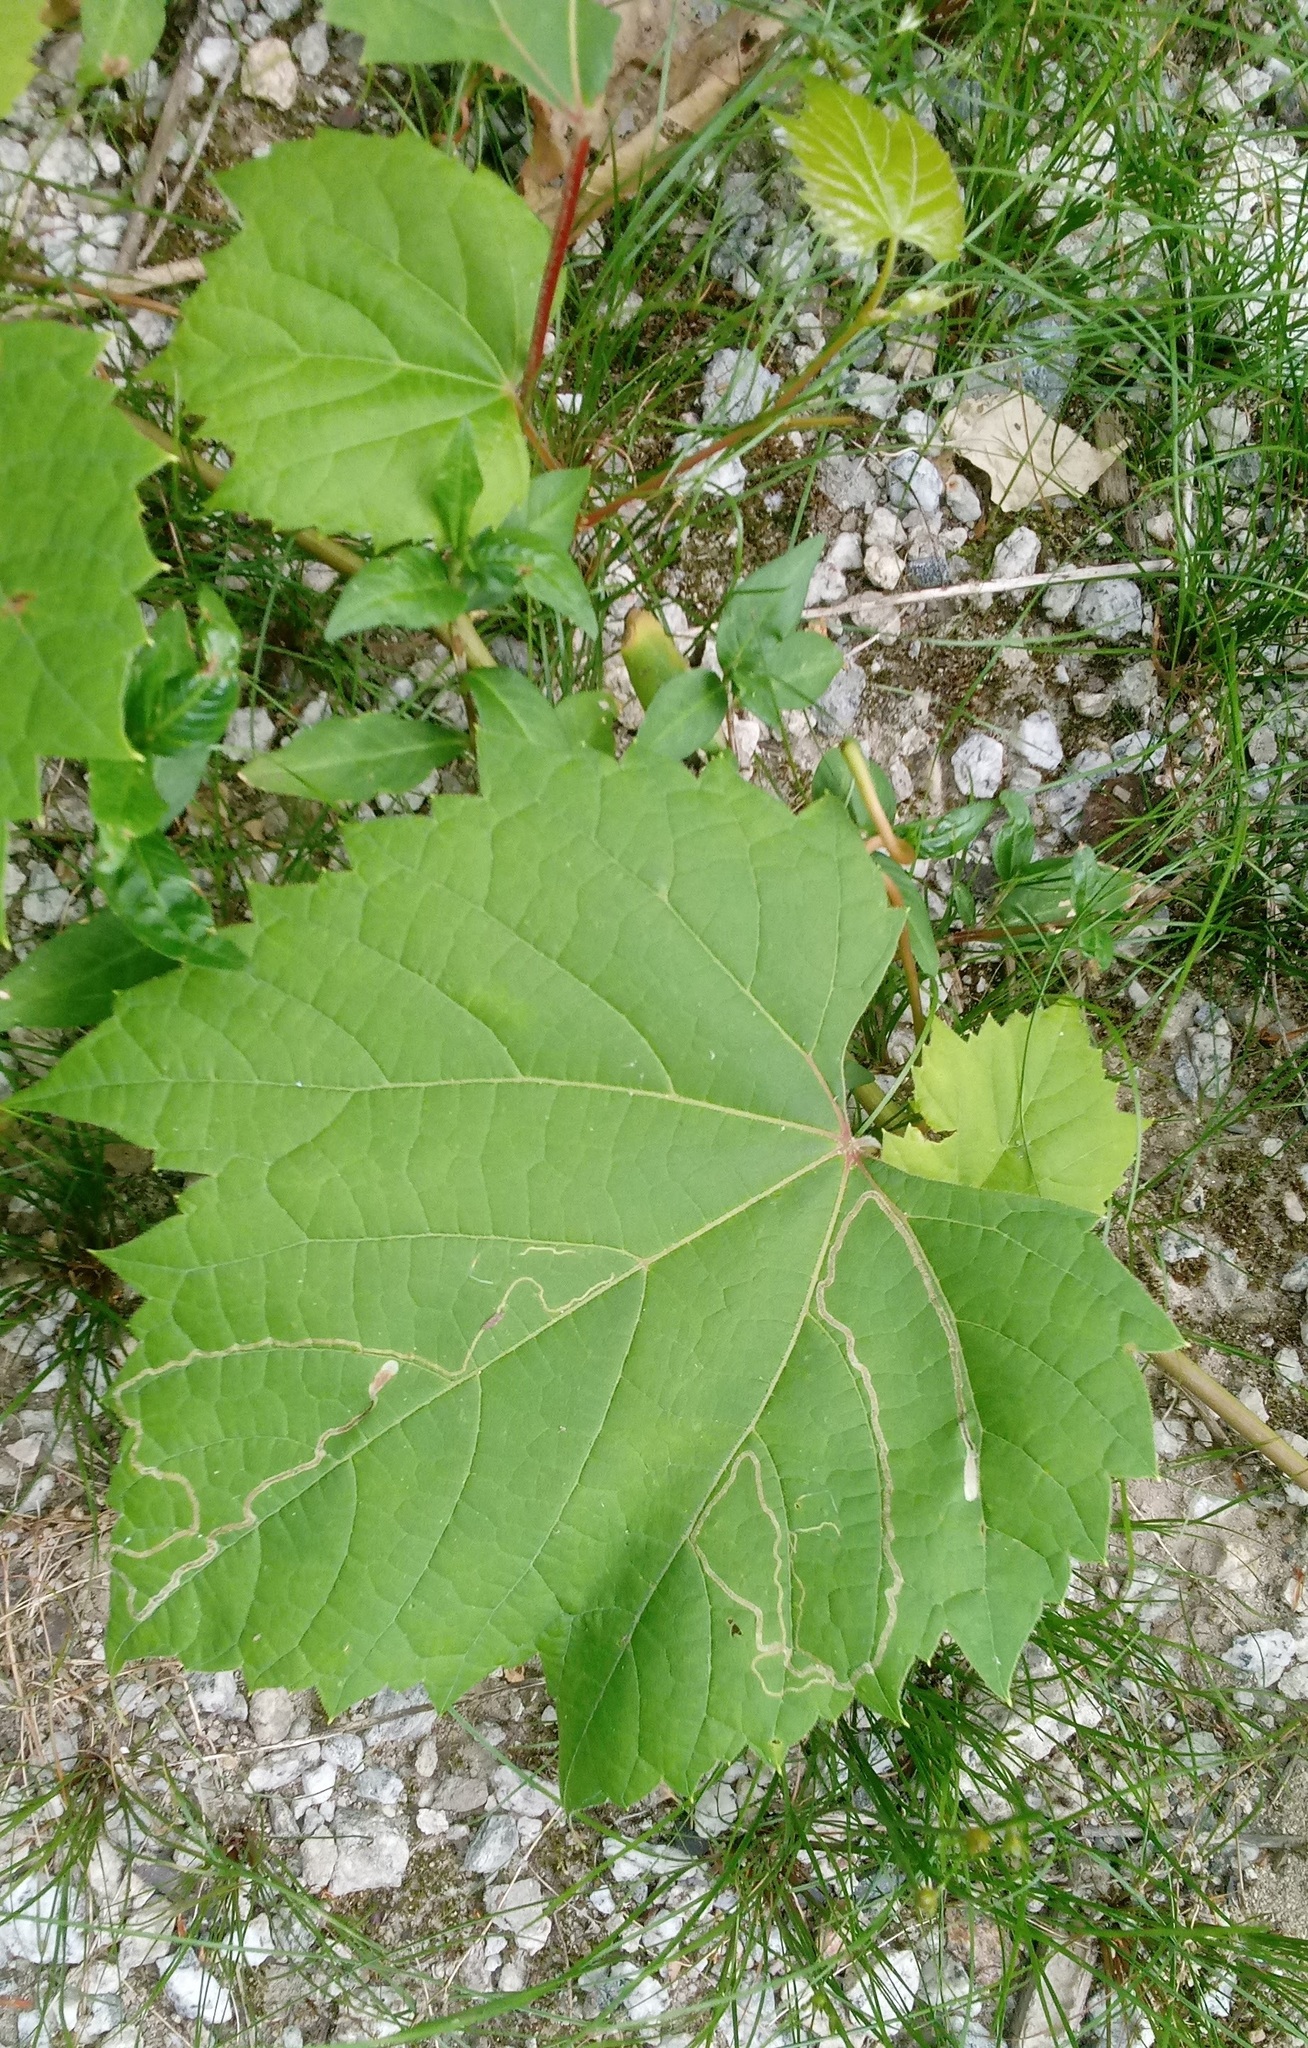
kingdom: Animalia
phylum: Arthropoda
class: Insecta
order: Lepidoptera
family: Gracillariidae
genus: Phyllocnistis
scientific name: Phyllocnistis vitifoliella
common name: Grape leaf-miner moth
